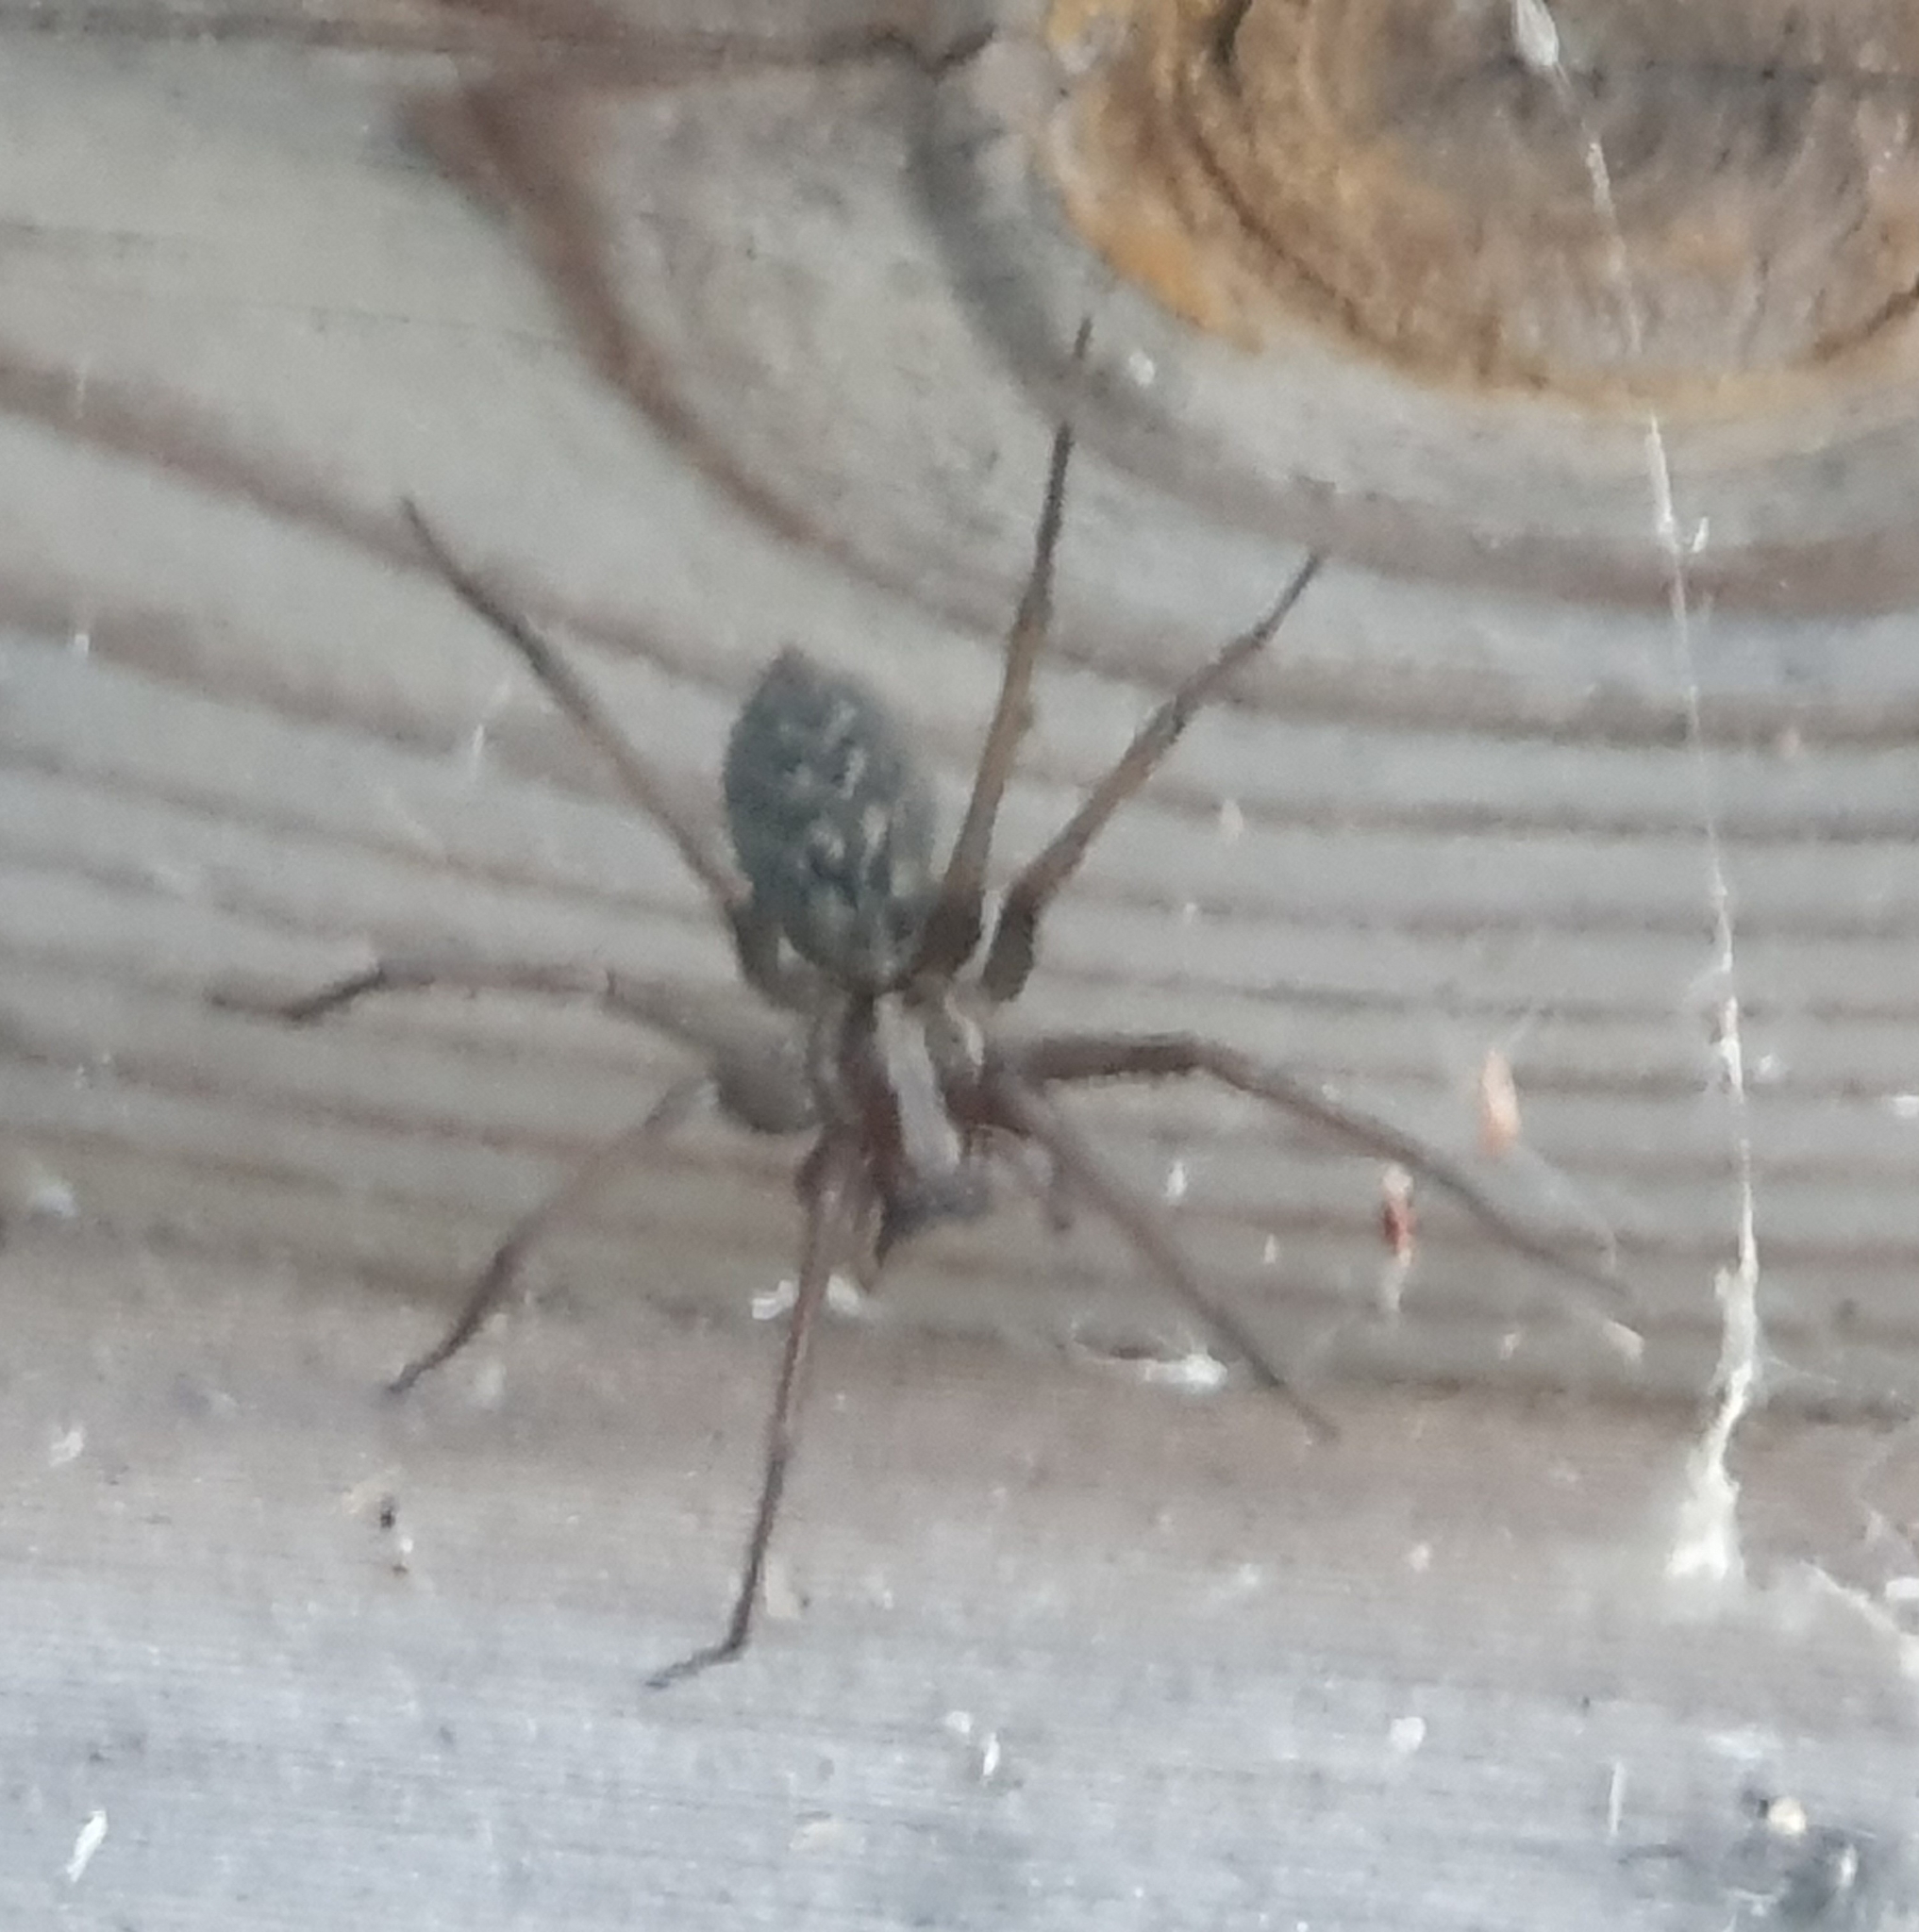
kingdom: Animalia
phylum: Arthropoda
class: Arachnida
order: Araneae
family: Agelenidae
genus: Eratigena
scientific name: Eratigena atrica
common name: Giant house spider
